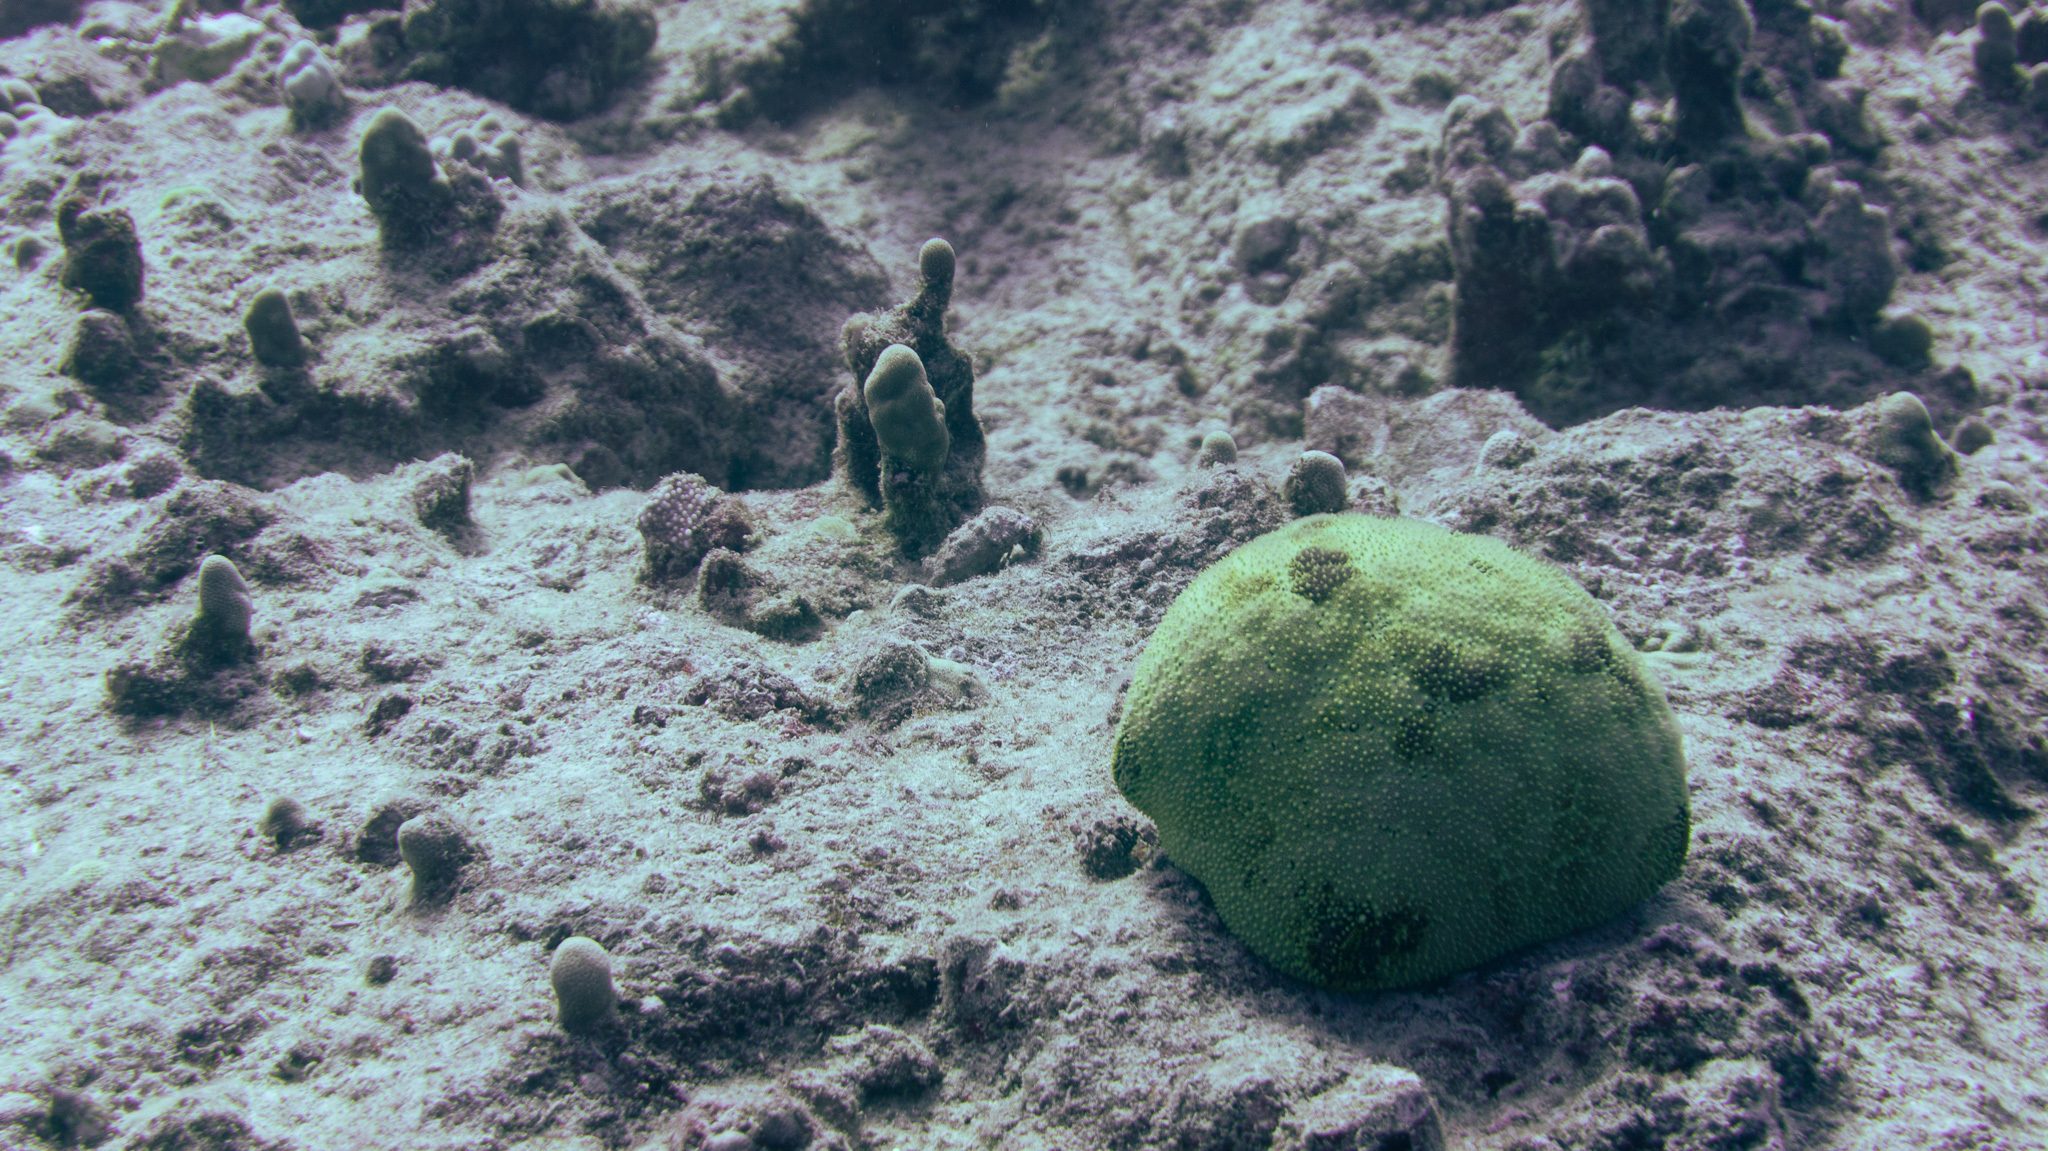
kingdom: Animalia
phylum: Echinodermata
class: Asteroidea
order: Valvatida
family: Oreasteridae
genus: Culcita
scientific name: Culcita novaeguineae
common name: Cushion star
